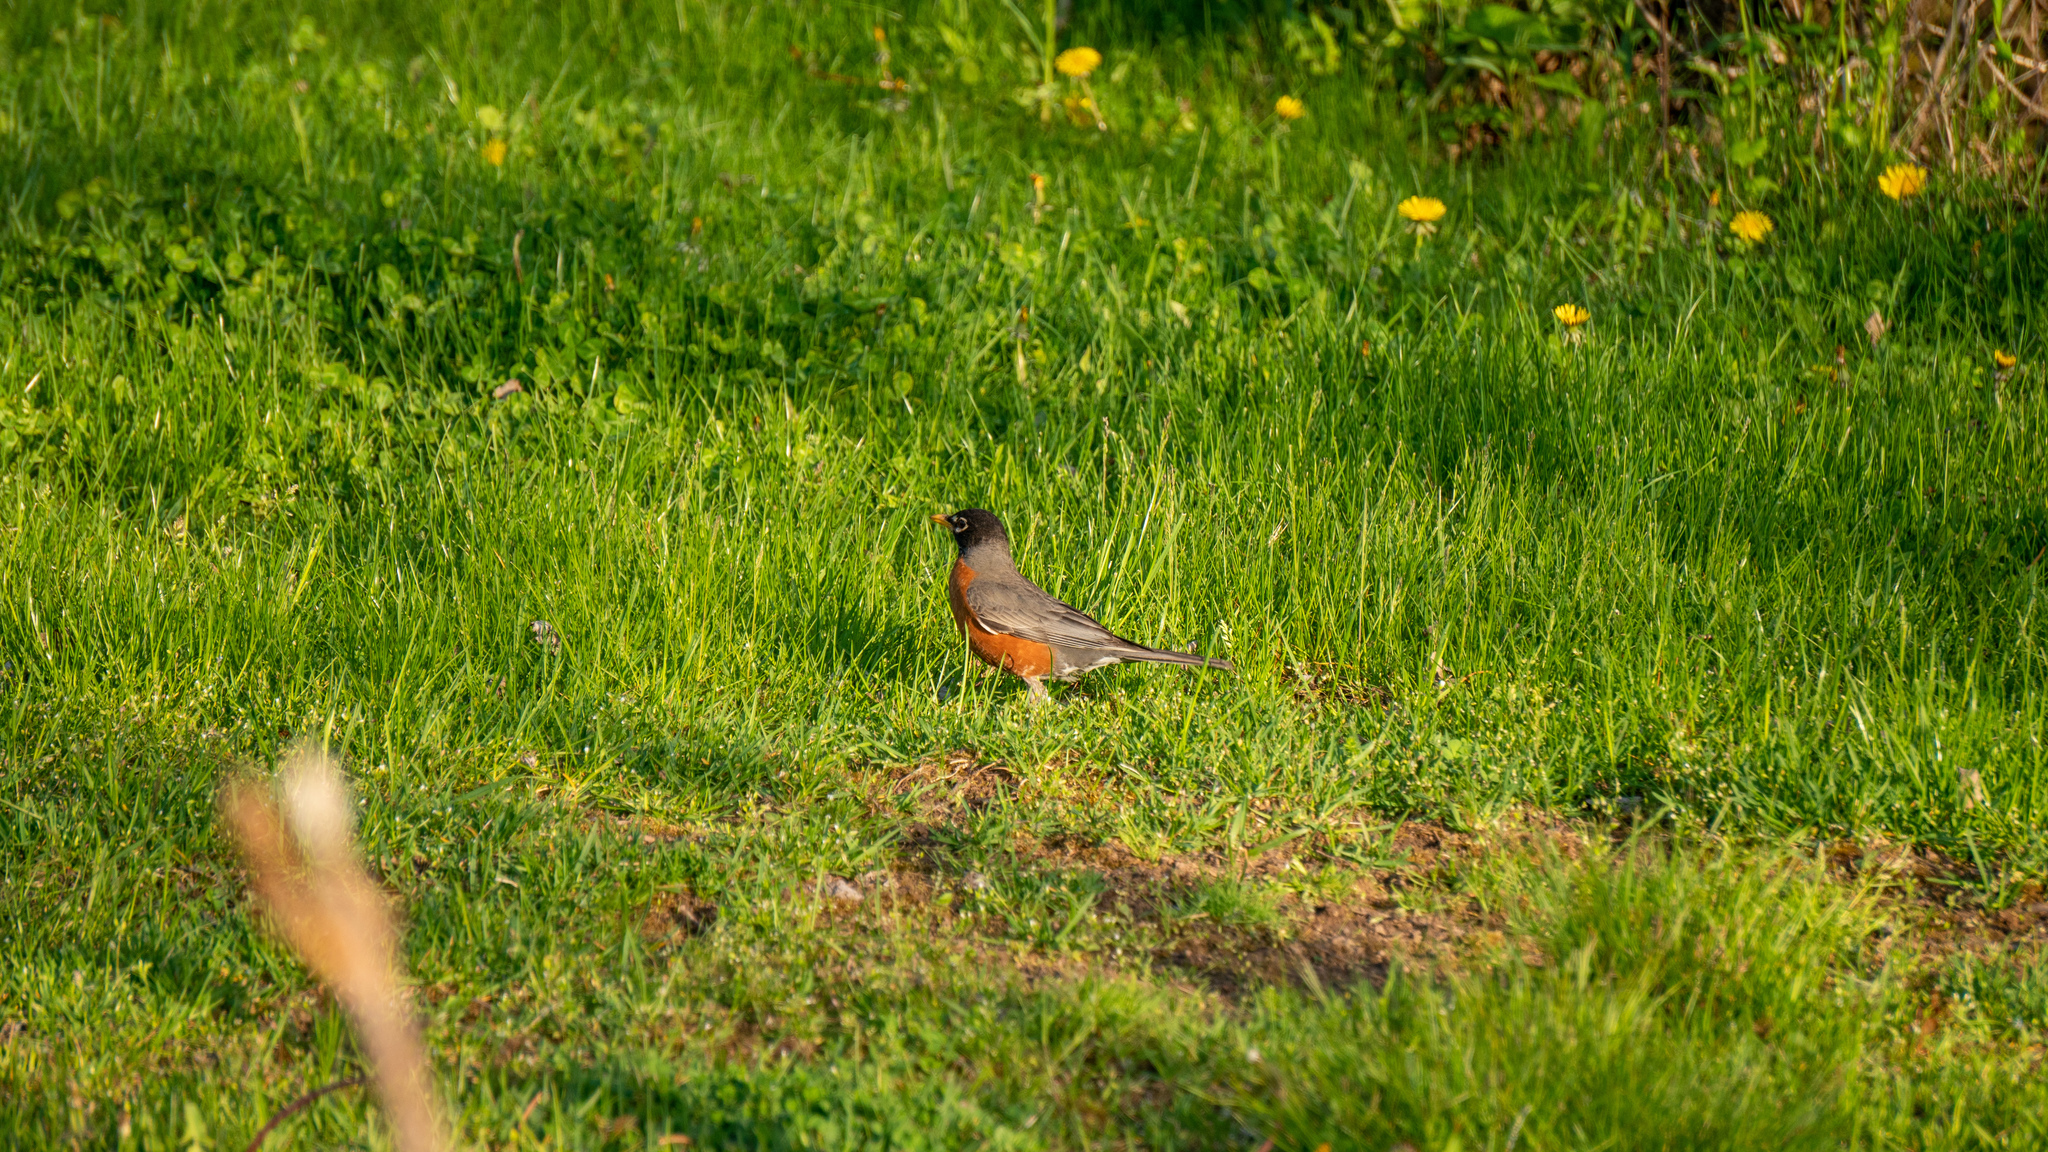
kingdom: Animalia
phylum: Chordata
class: Aves
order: Passeriformes
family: Turdidae
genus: Turdus
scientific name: Turdus migratorius
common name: American robin
